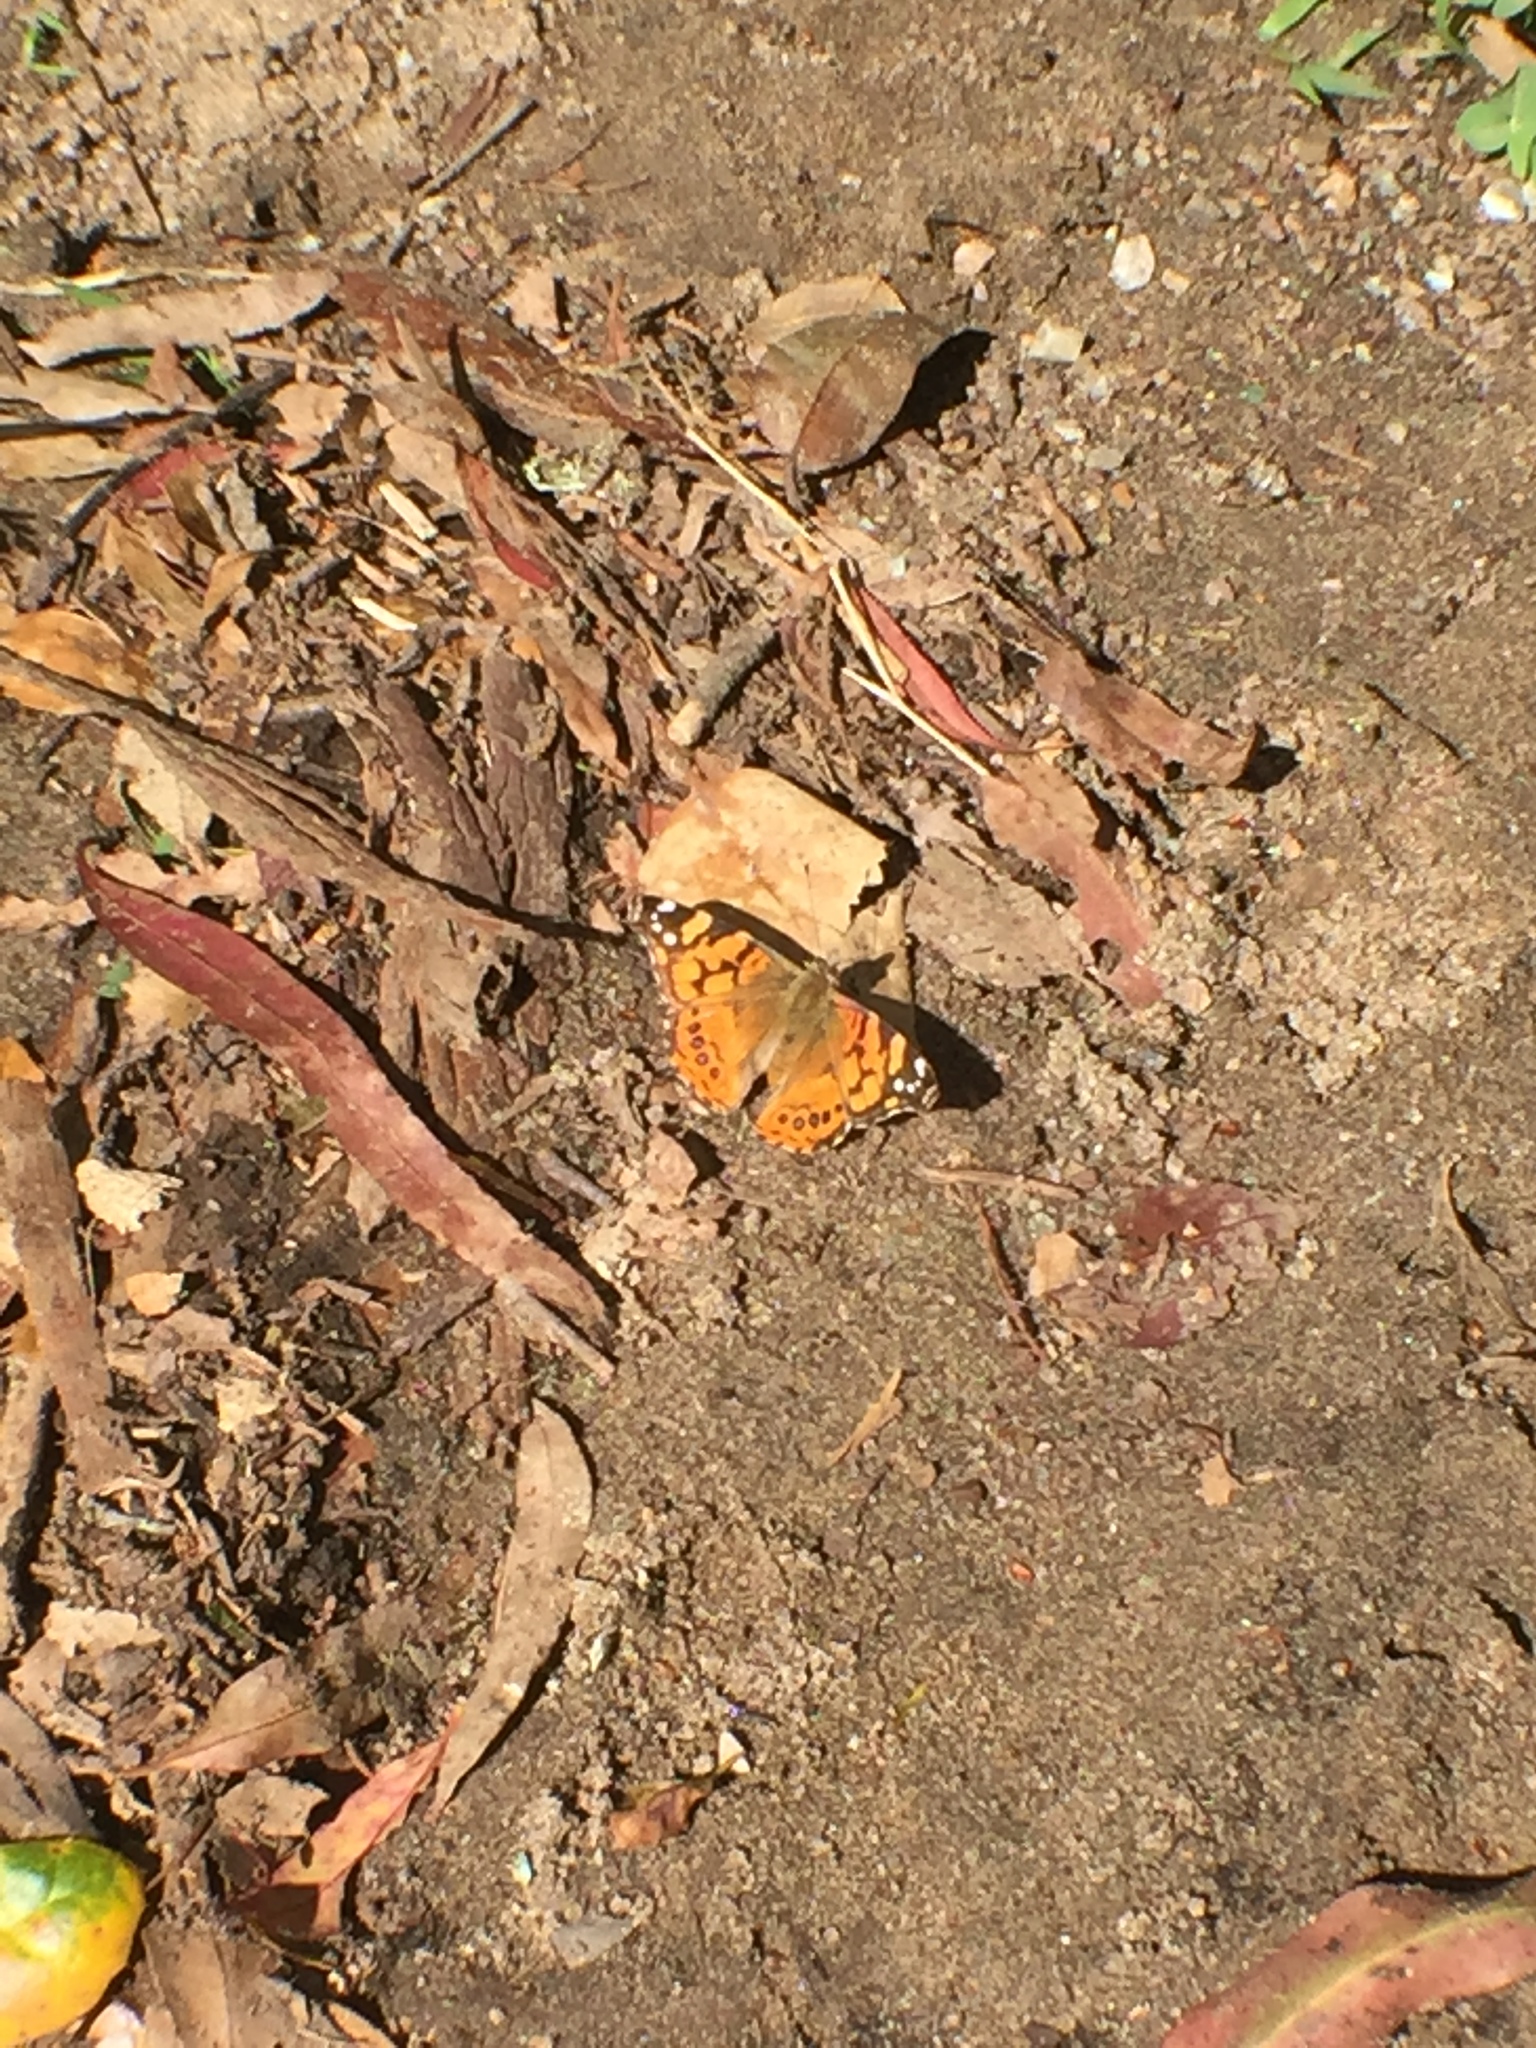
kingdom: Animalia
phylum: Arthropoda
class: Insecta
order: Lepidoptera
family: Nymphalidae
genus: Vanessa
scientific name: Vanessa annabella
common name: West coast lady
